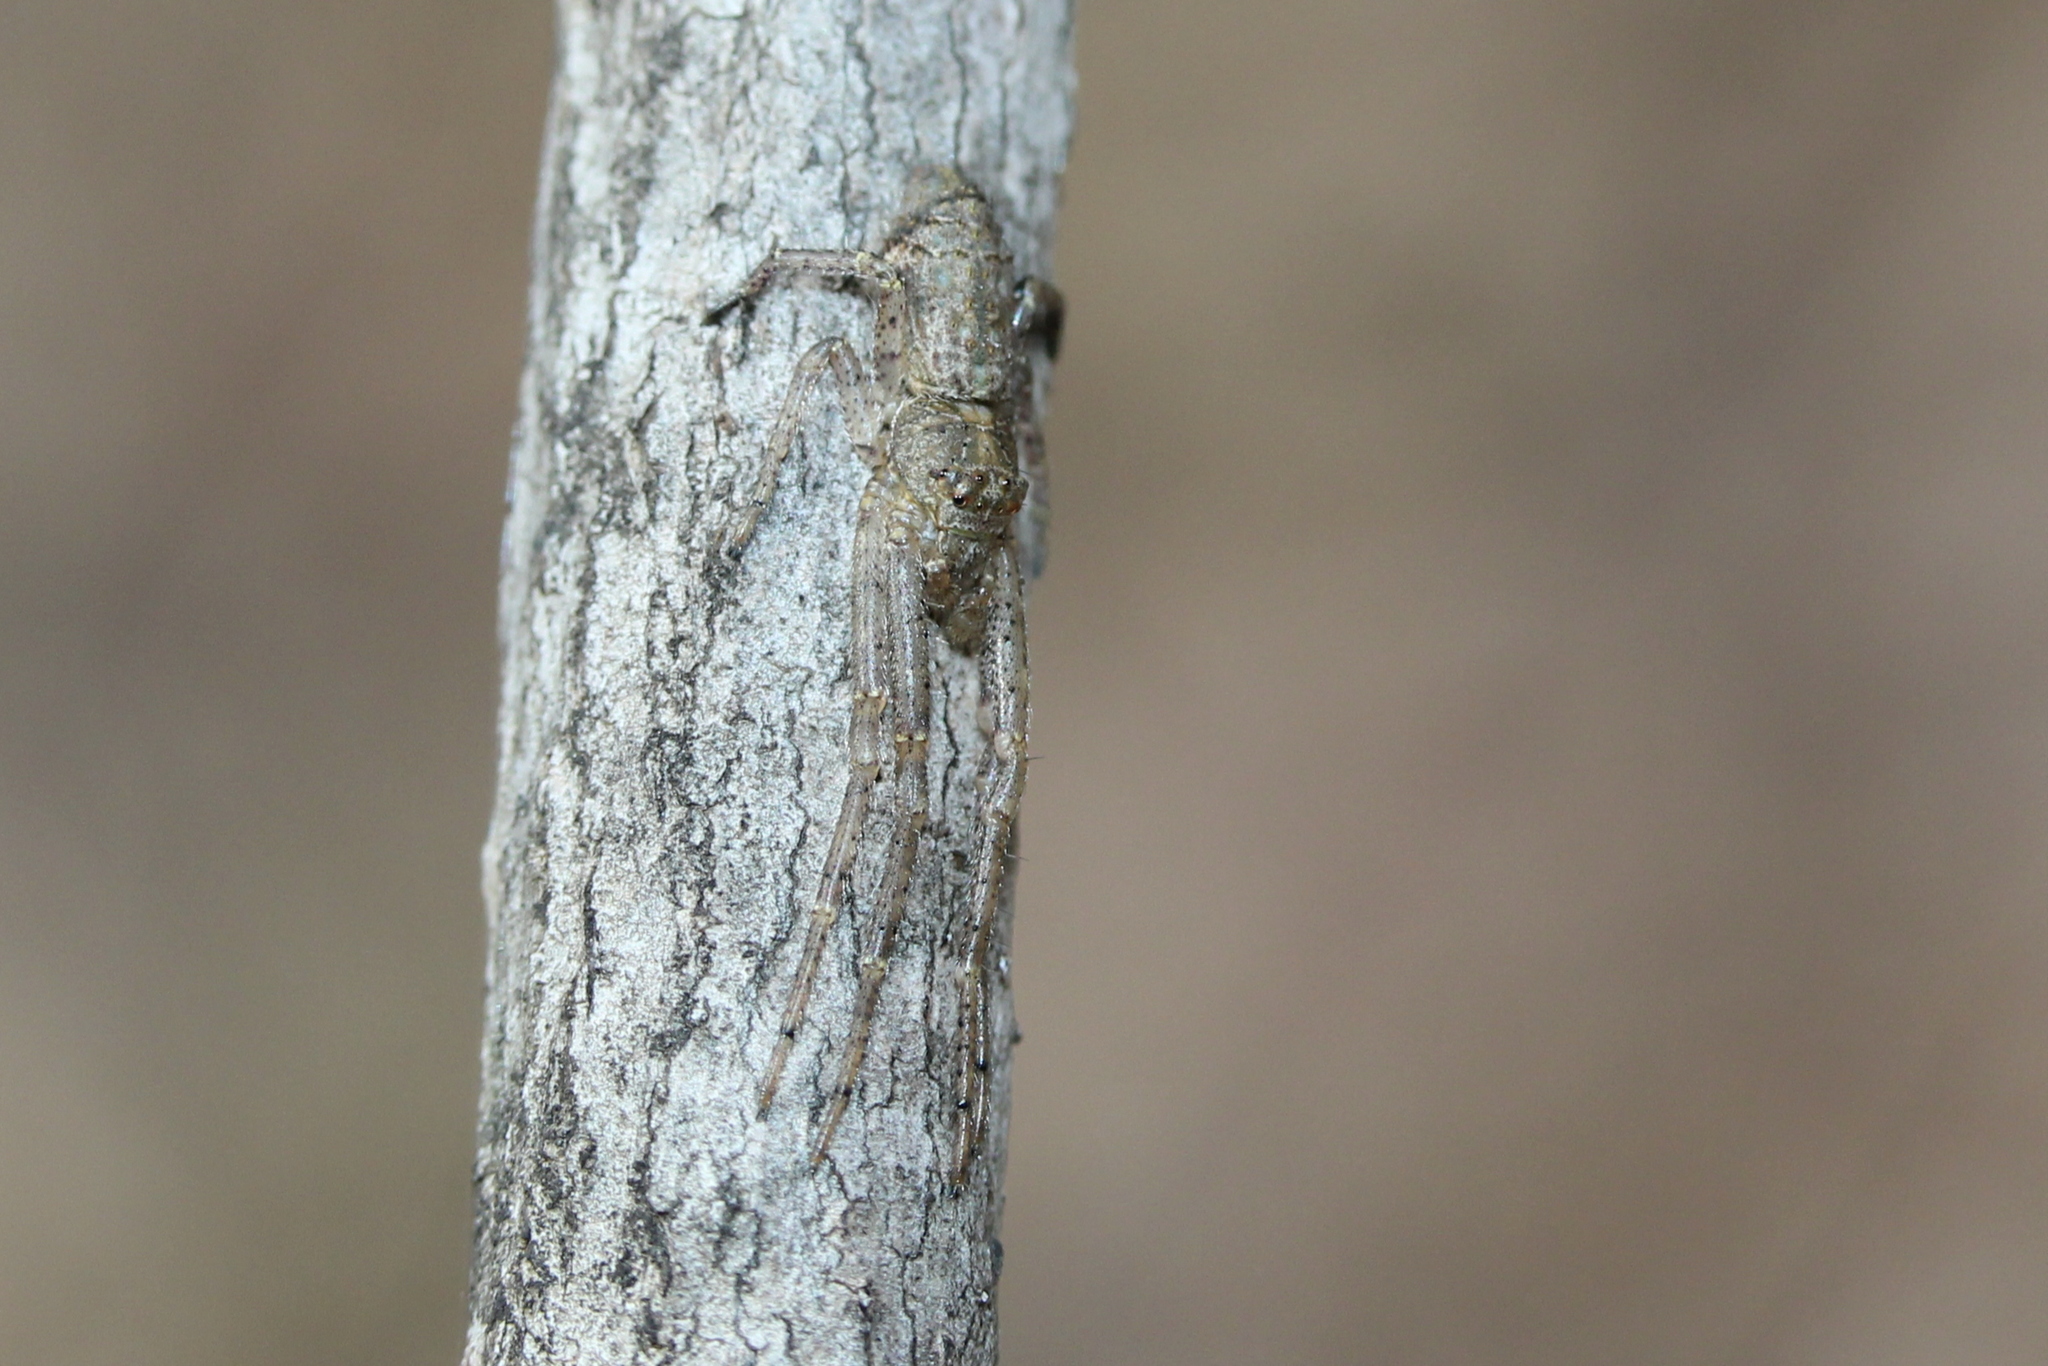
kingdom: Animalia
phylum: Arthropoda
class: Arachnida
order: Araneae
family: Thomisidae
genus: Tmarus
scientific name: Tmarus angulatus
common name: Tuberculated crab spider
